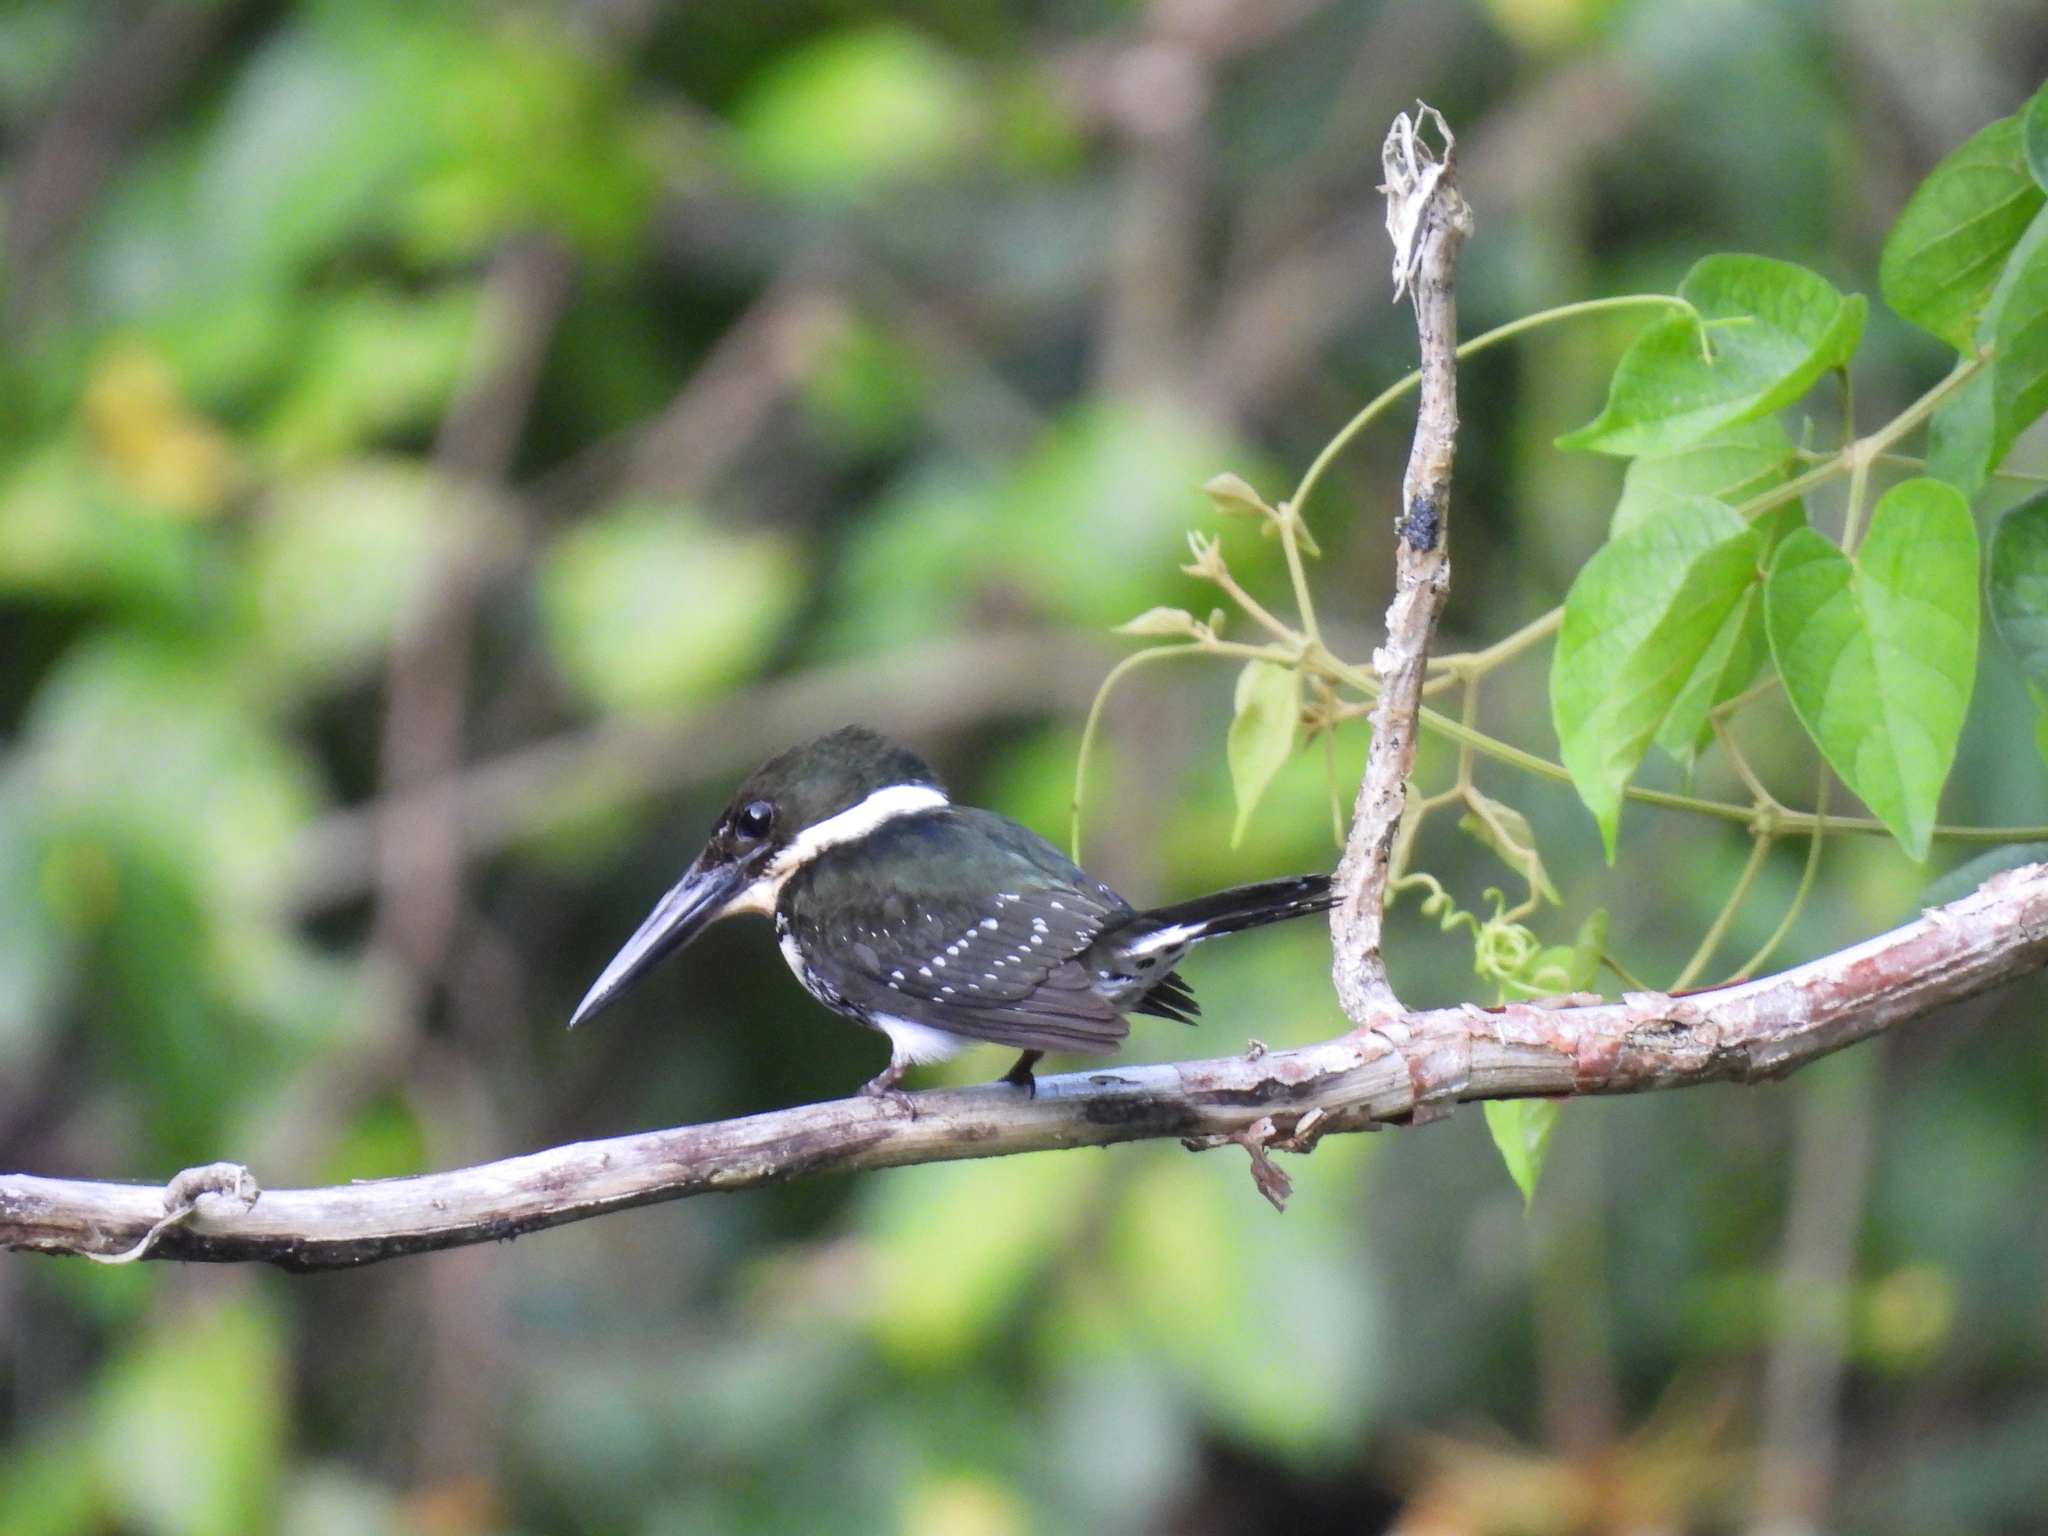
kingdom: Animalia
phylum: Chordata
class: Aves
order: Coraciiformes
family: Alcedinidae
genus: Chloroceryle
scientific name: Chloroceryle americana
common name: Green kingfisher
